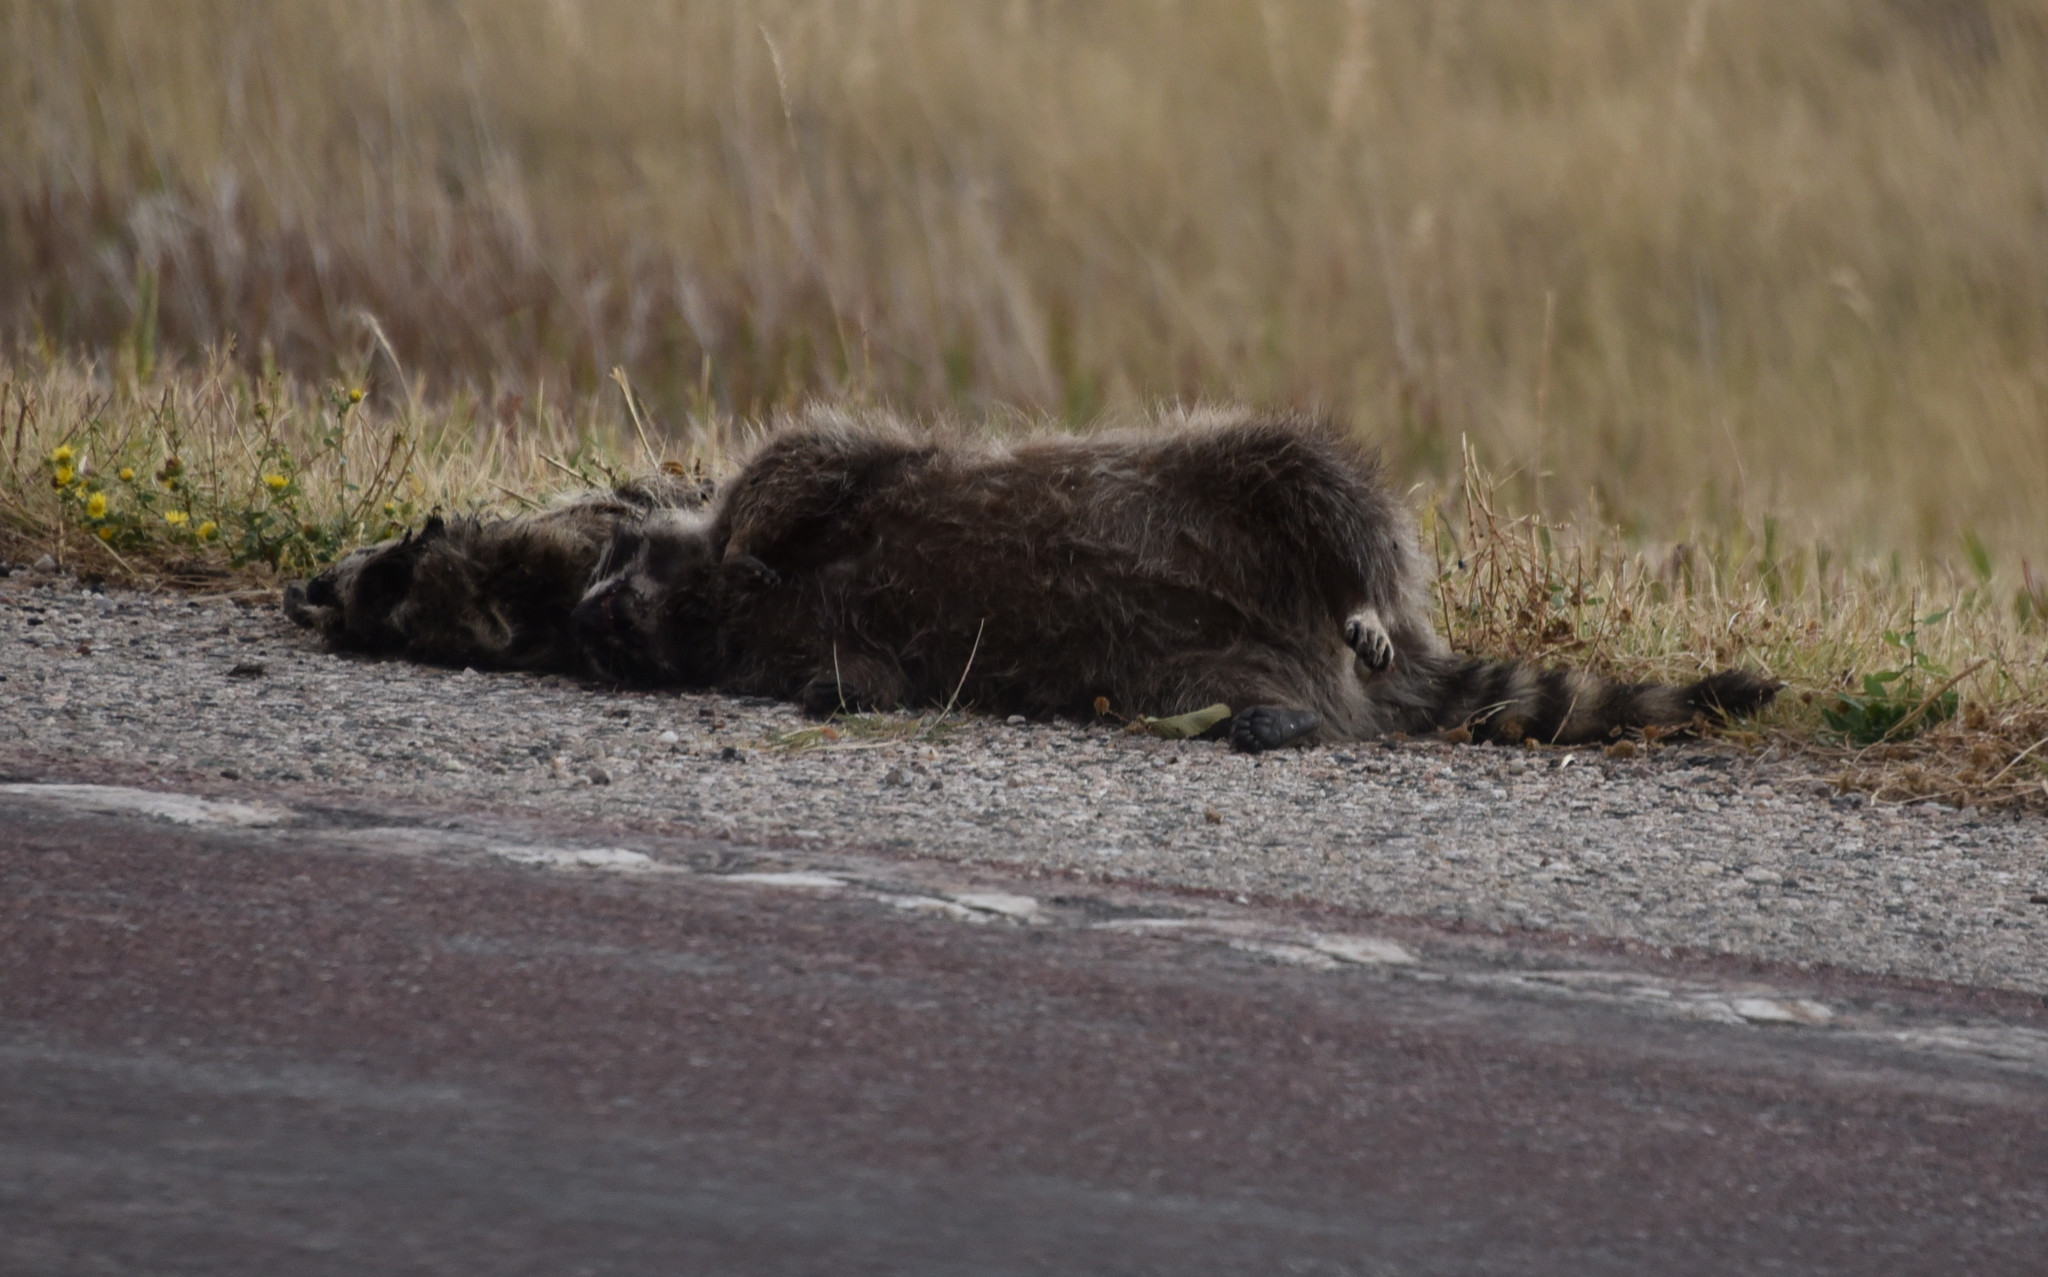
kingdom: Animalia
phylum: Chordata
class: Mammalia
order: Carnivora
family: Procyonidae
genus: Procyon
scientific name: Procyon lotor
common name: Raccoon
